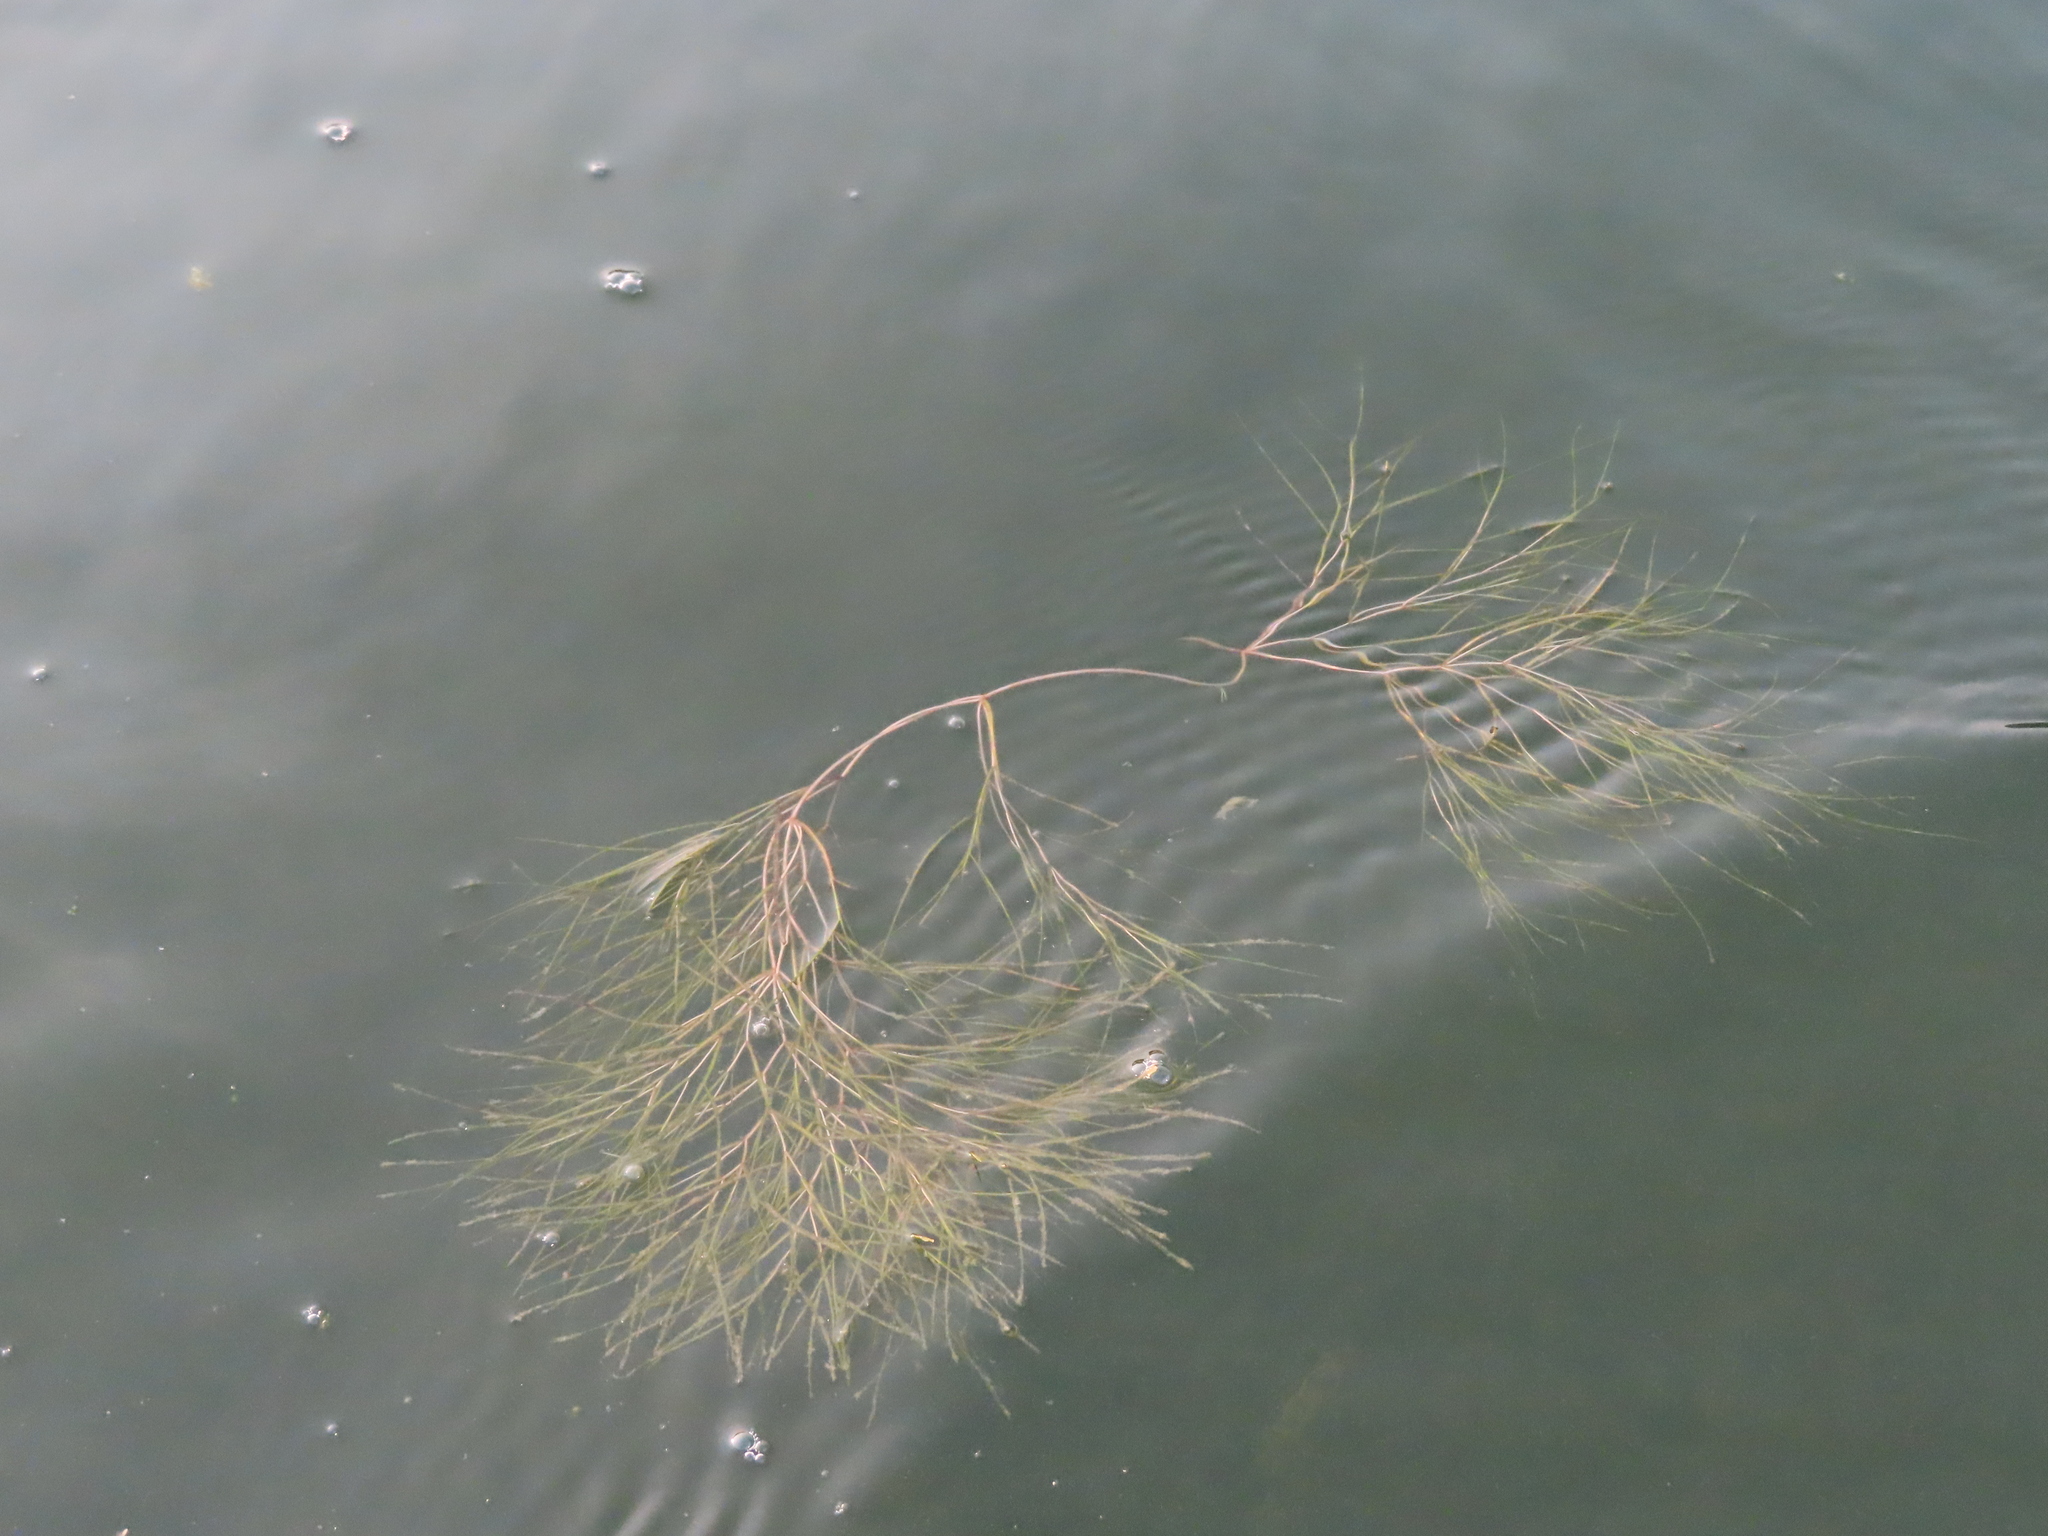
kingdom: Plantae
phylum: Tracheophyta
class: Liliopsida
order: Alismatales
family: Potamogetonaceae
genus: Stuckenia
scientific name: Stuckenia pectinata
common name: Sago pondweed
